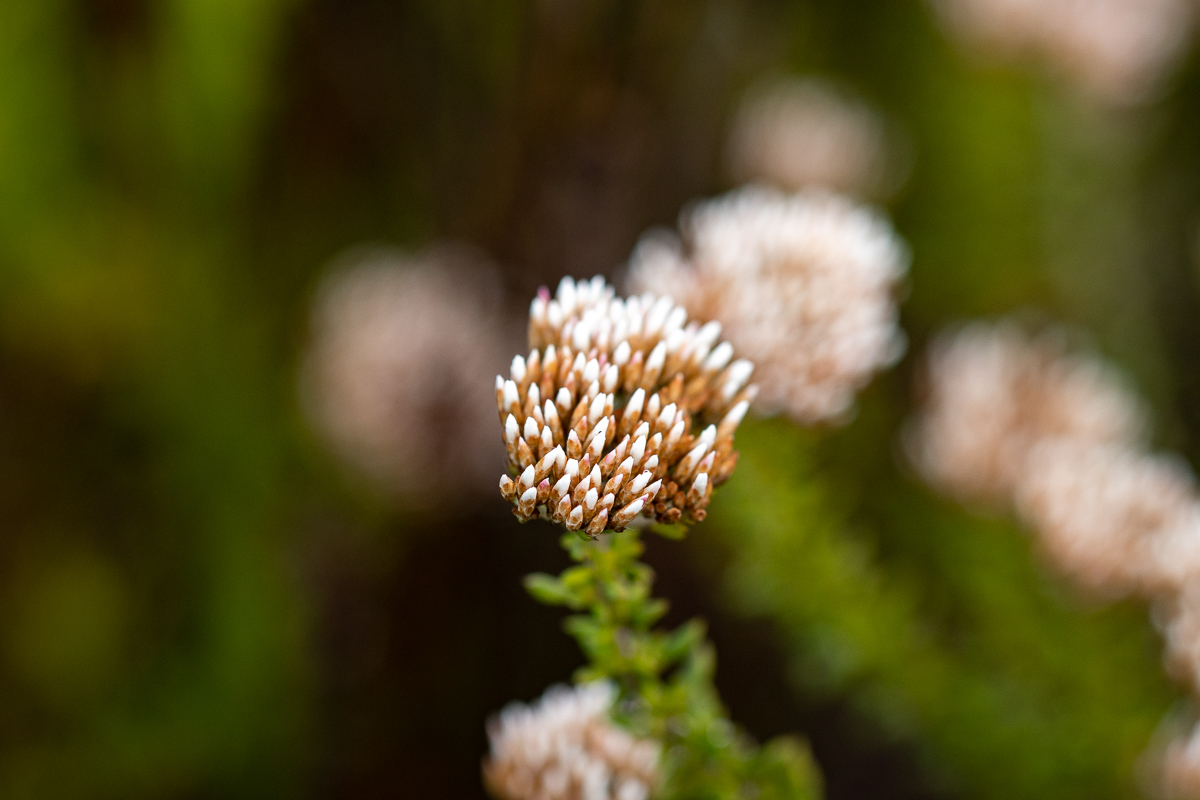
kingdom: Plantae
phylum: Tracheophyta
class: Magnoliopsida
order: Asterales
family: Asteraceae
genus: Metalasia
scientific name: Metalasia densa
